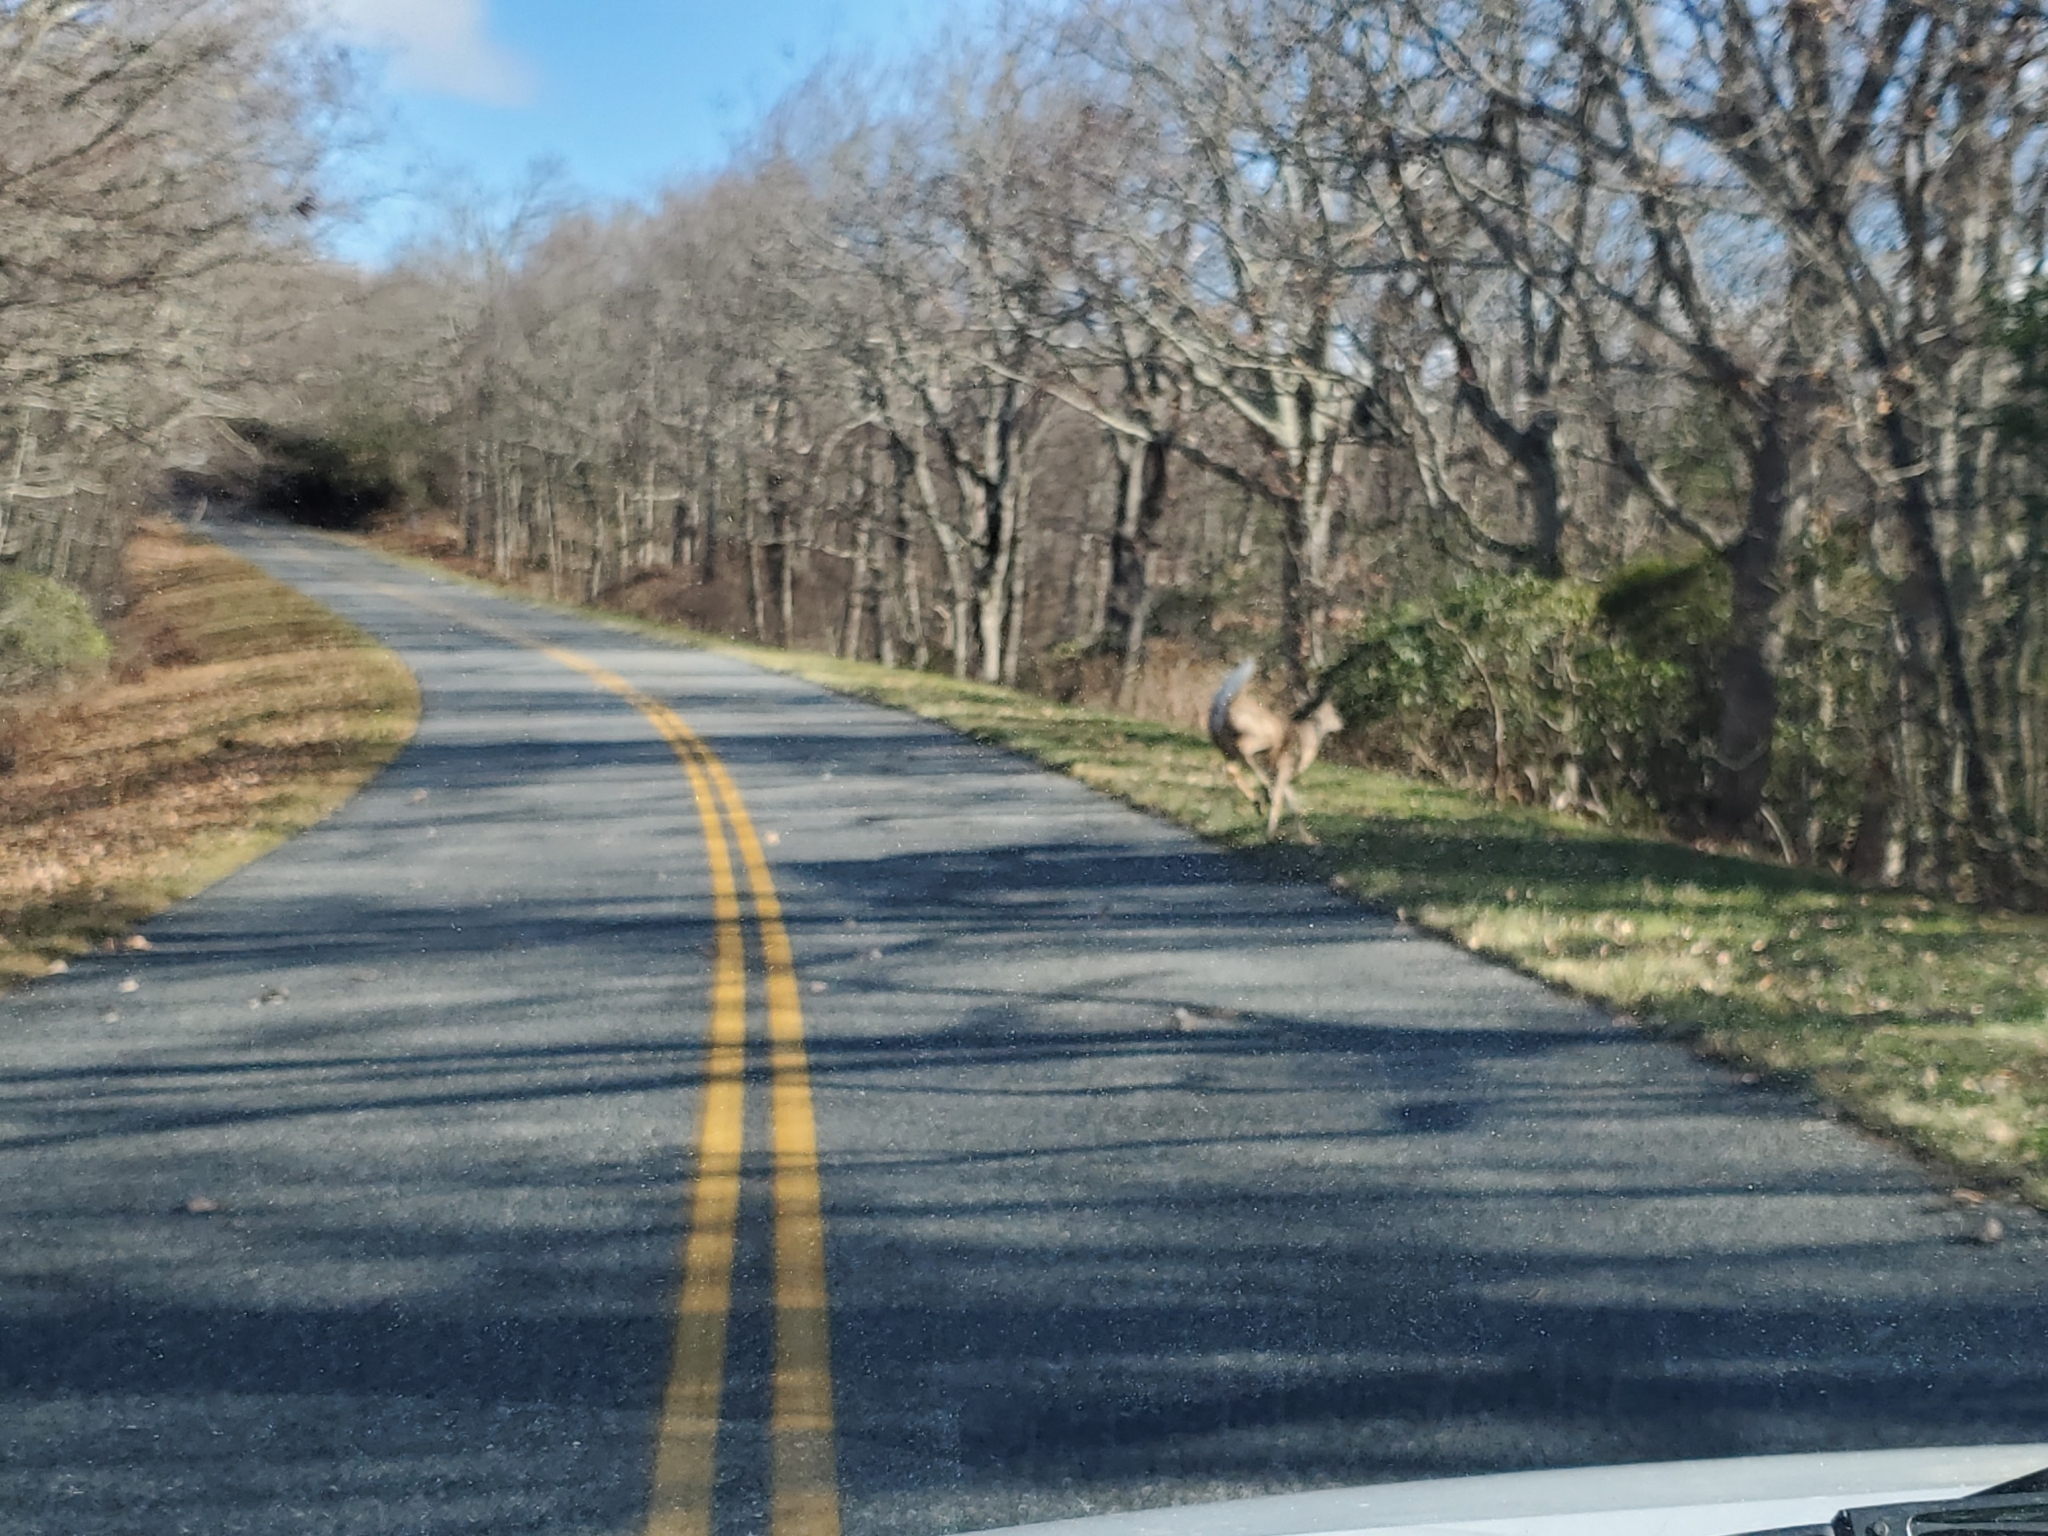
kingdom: Animalia
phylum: Chordata
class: Mammalia
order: Artiodactyla
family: Cervidae
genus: Odocoileus
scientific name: Odocoileus virginianus
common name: White-tailed deer
